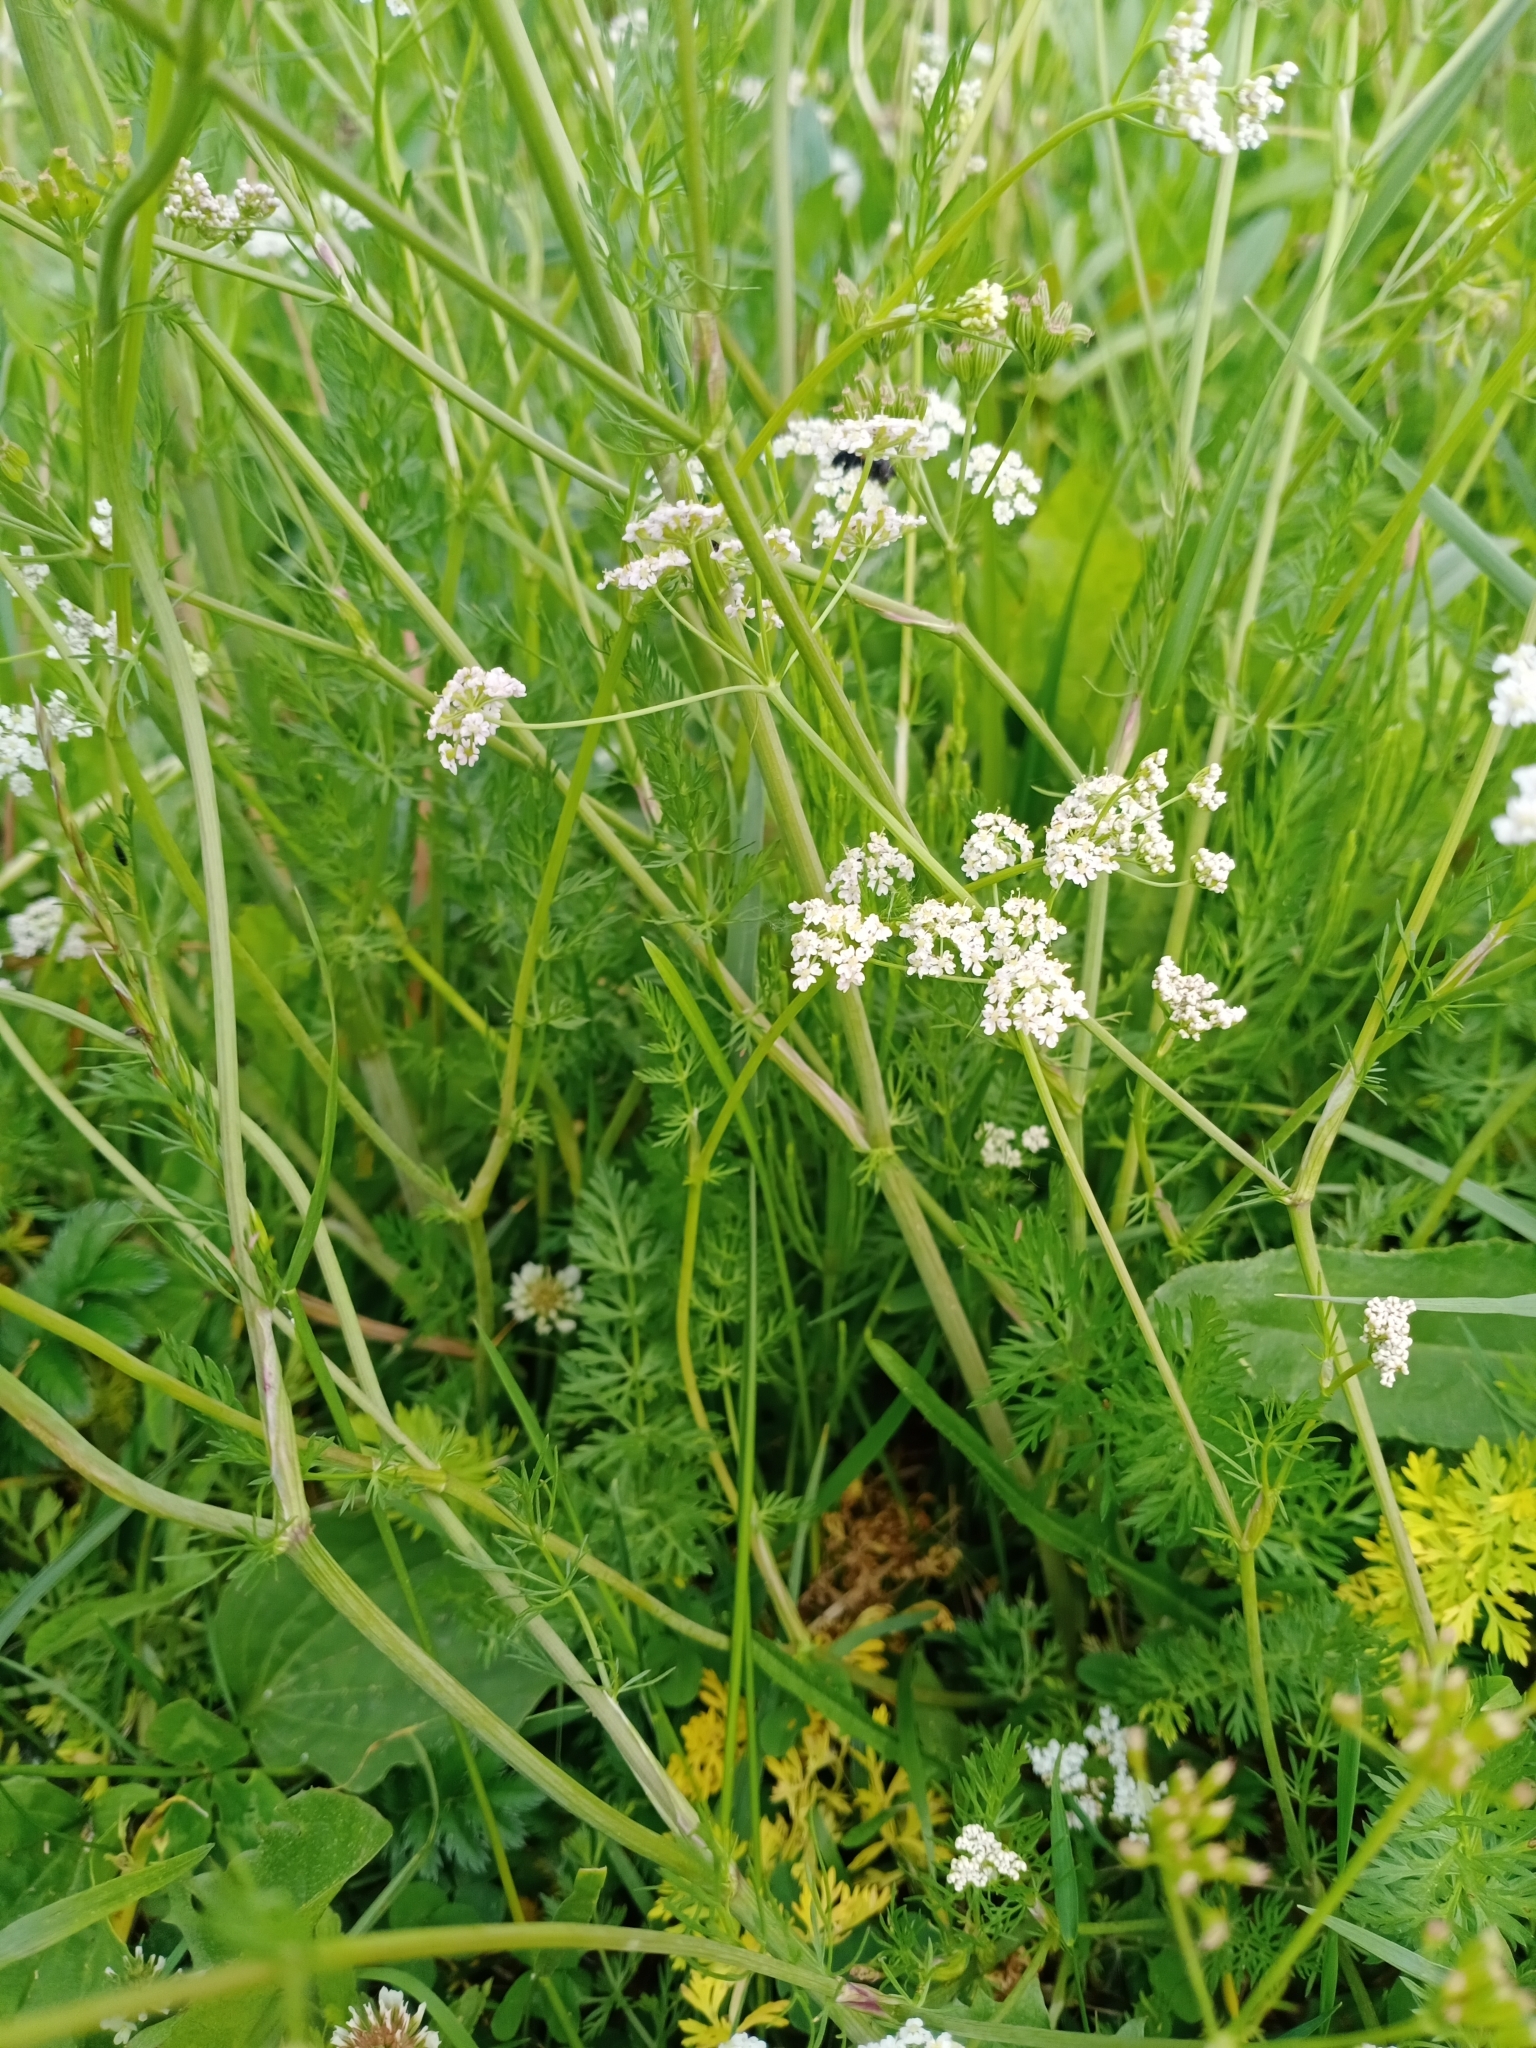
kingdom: Plantae
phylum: Tracheophyta
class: Magnoliopsida
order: Apiales
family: Apiaceae
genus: Carum
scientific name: Carum carvi
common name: Caraway
